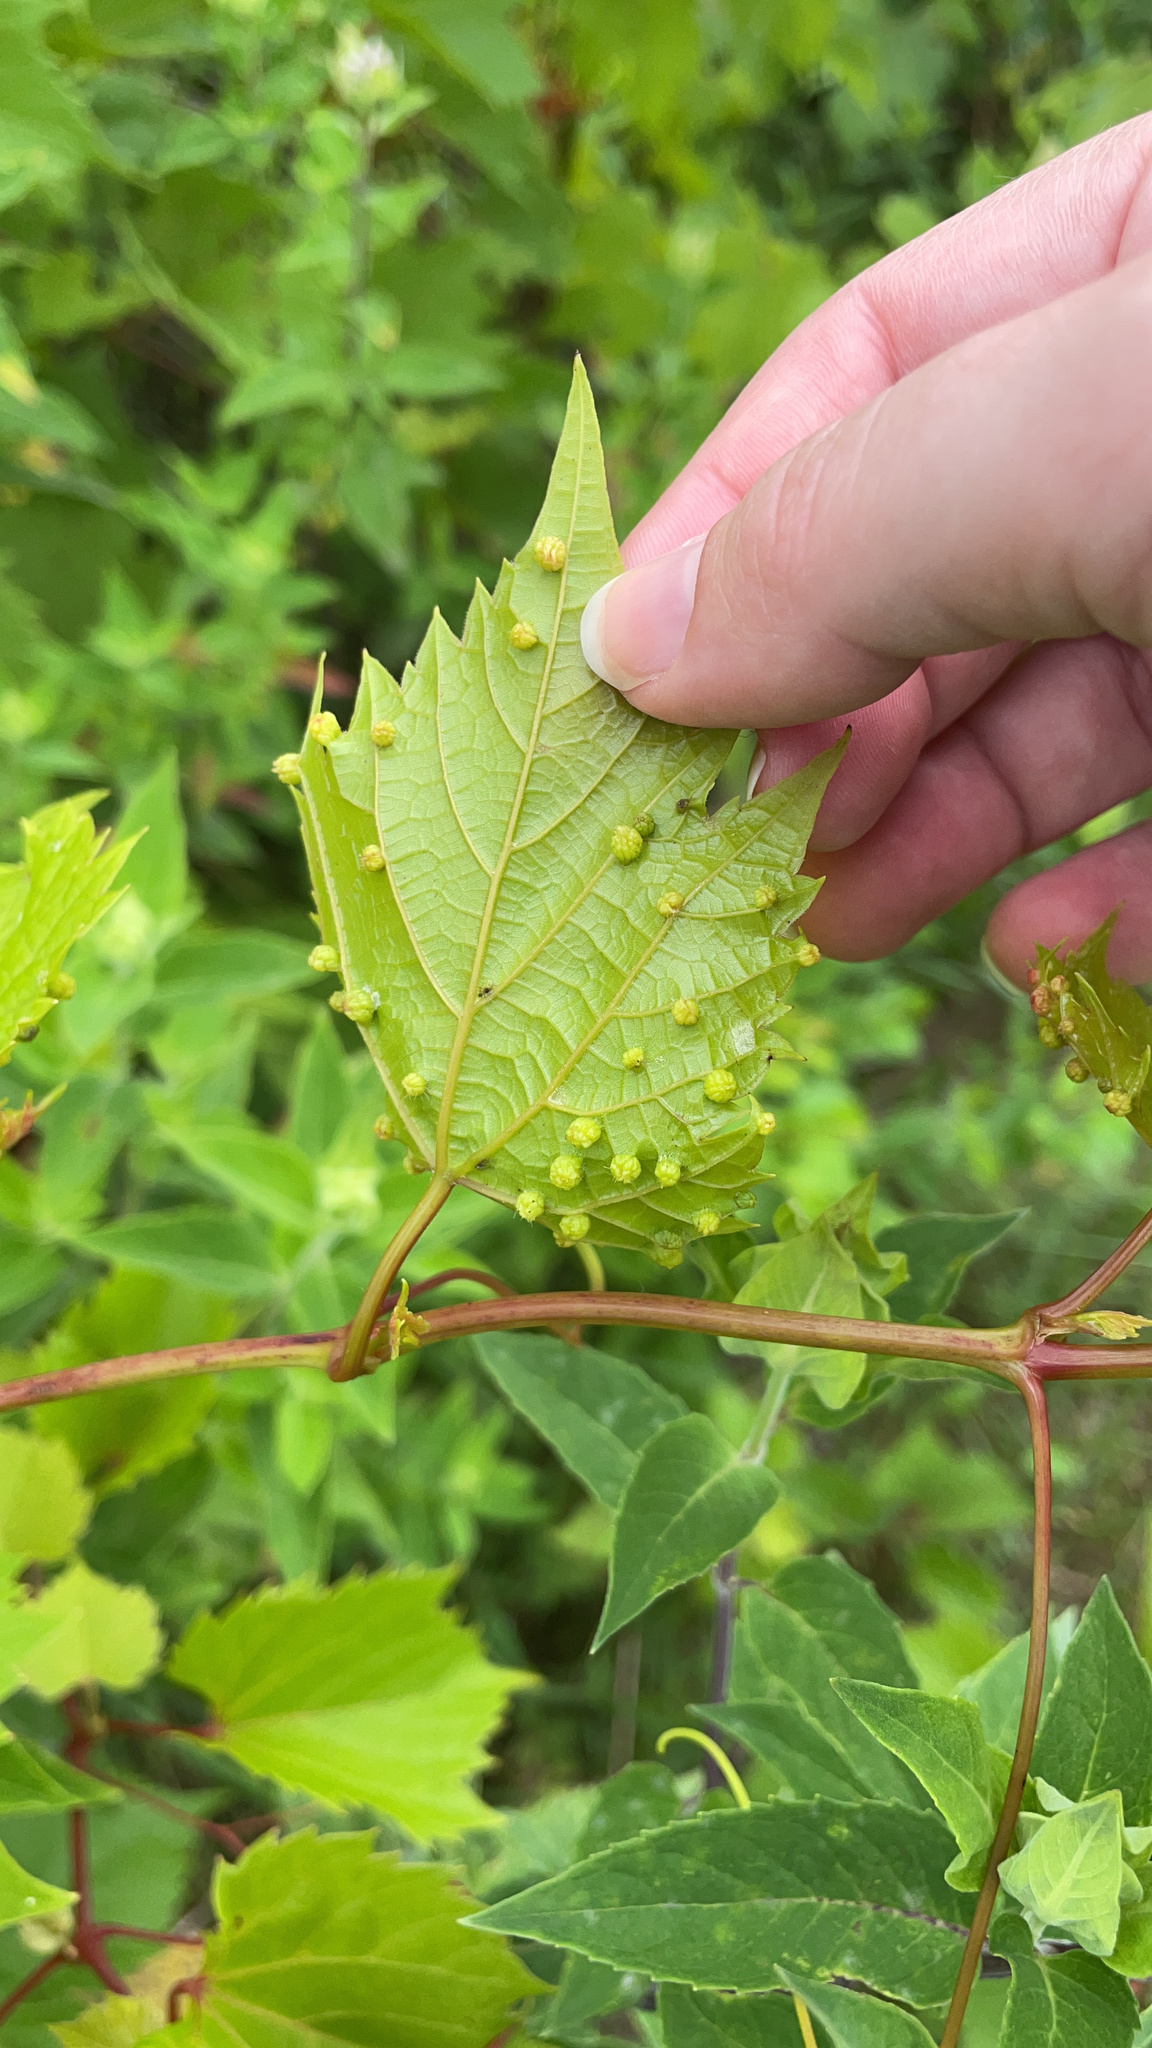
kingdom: Animalia
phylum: Arthropoda
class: Insecta
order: Hemiptera
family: Phylloxeridae
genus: Daktulosphaira
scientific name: Daktulosphaira vitifoliae
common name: Grape phylloxera
